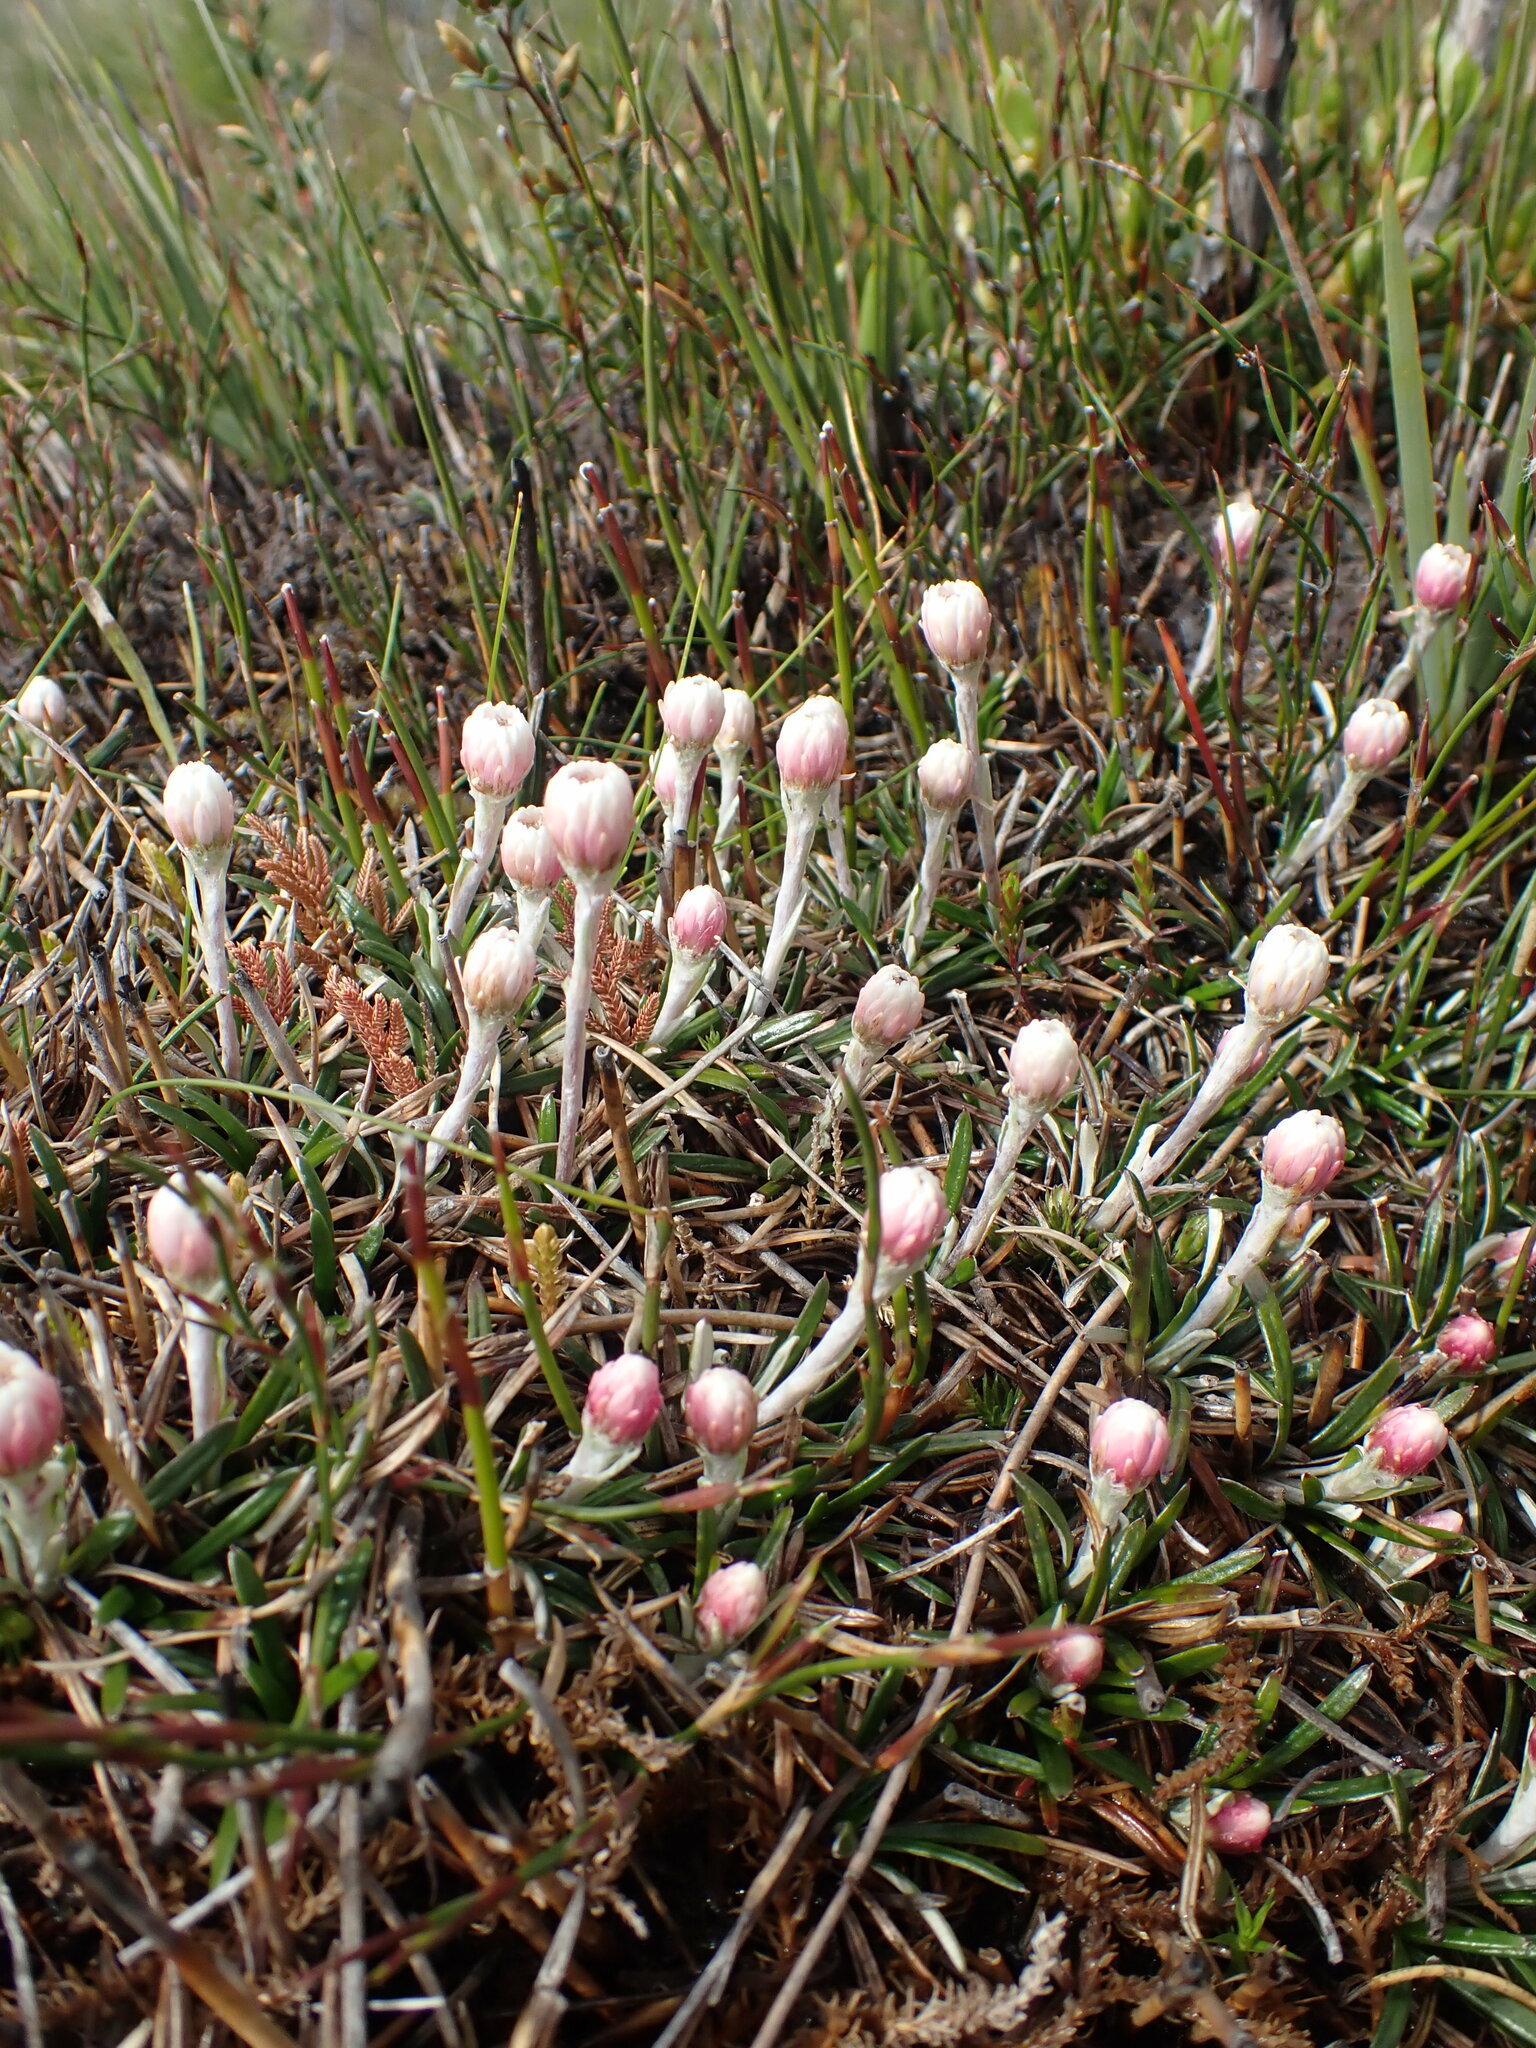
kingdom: Plantae
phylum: Tracheophyta
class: Magnoliopsida
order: Asterales
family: Asteraceae
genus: Helichrysum
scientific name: Helichrysum pumilum
